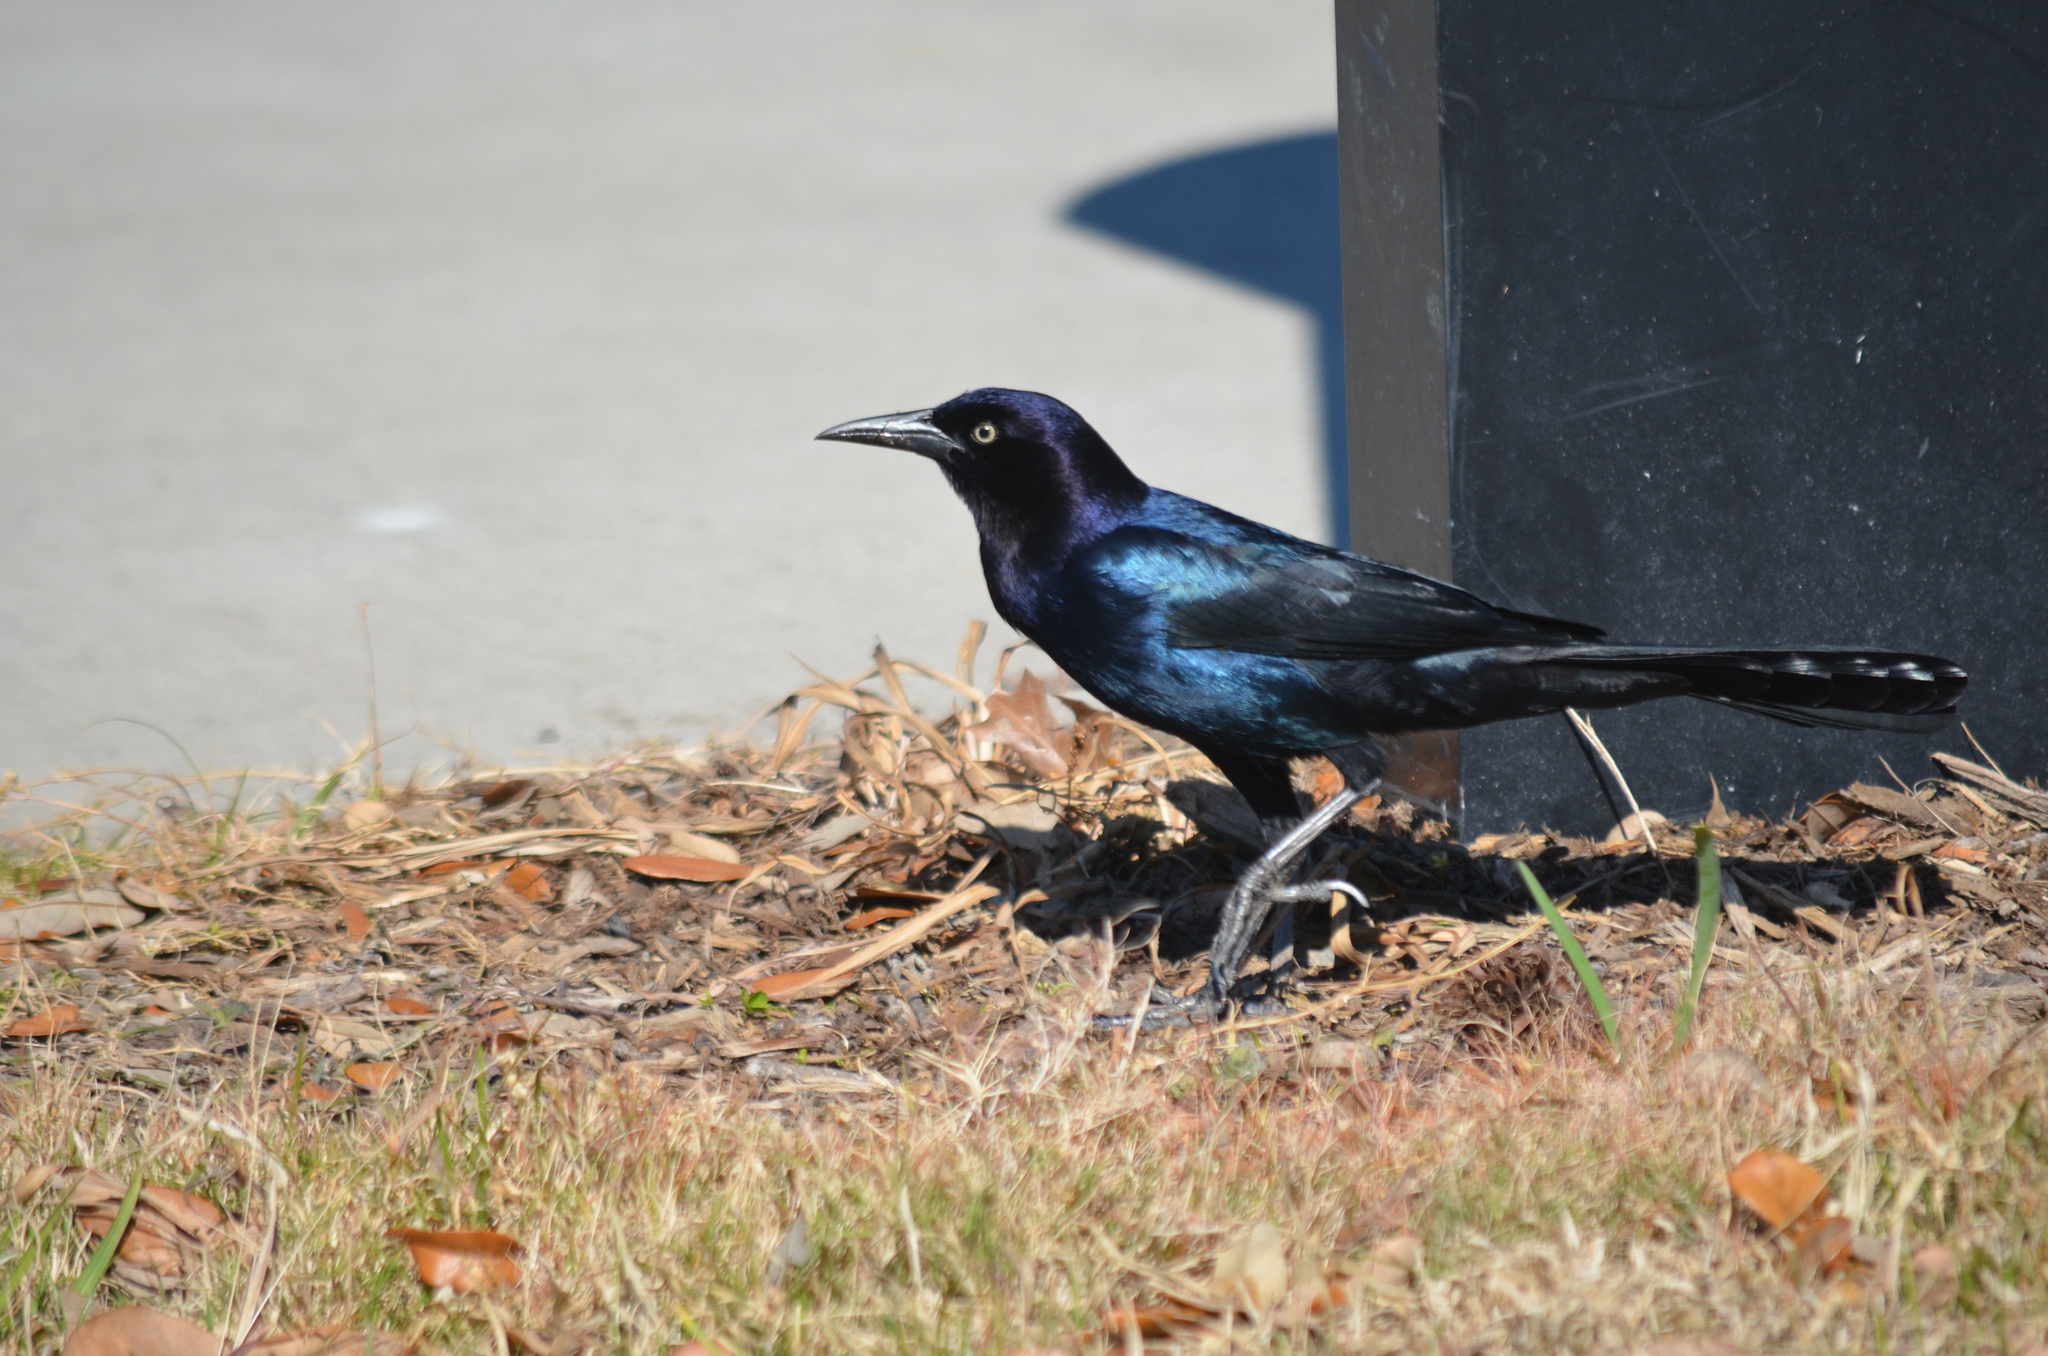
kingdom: Animalia
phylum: Chordata
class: Aves
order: Passeriformes
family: Icteridae
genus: Quiscalus
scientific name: Quiscalus major
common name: Boat-tailed grackle
